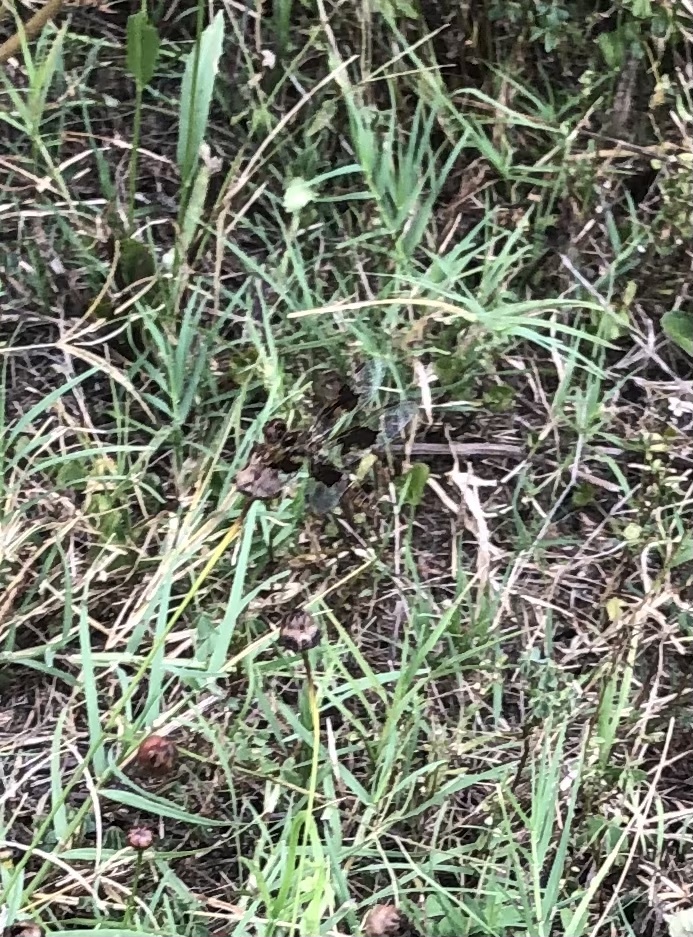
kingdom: Animalia
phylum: Arthropoda
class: Insecta
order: Odonata
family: Libellulidae
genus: Perithemis
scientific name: Perithemis tenera
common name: Eastern amberwing
